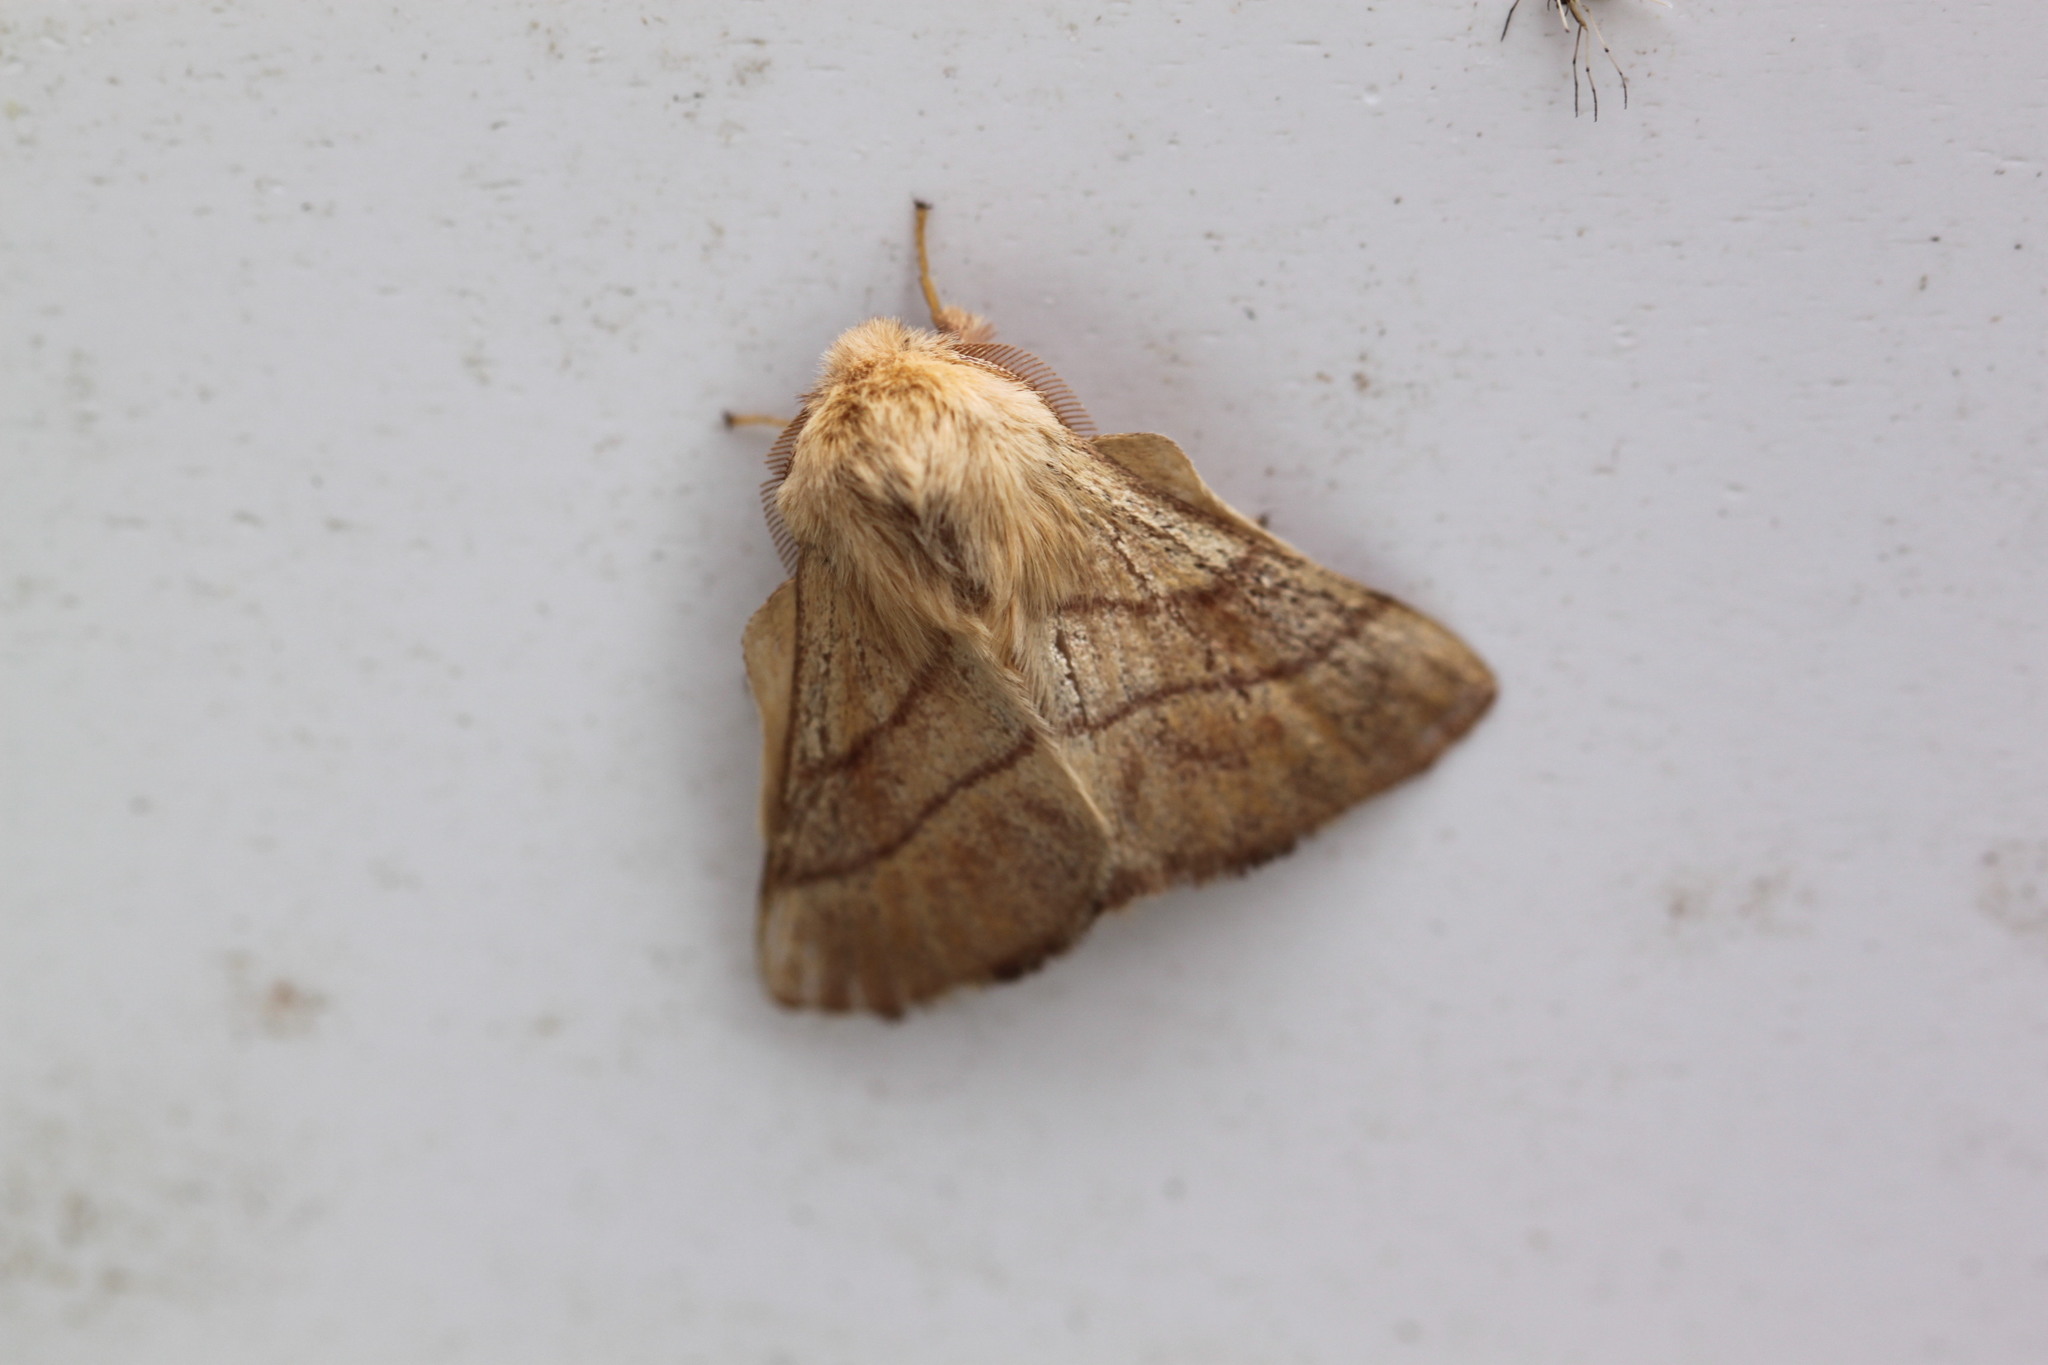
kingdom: Animalia
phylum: Arthropoda
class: Insecta
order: Lepidoptera
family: Lasiocampidae
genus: Malacosoma
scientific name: Malacosoma neustria
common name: The lackey
